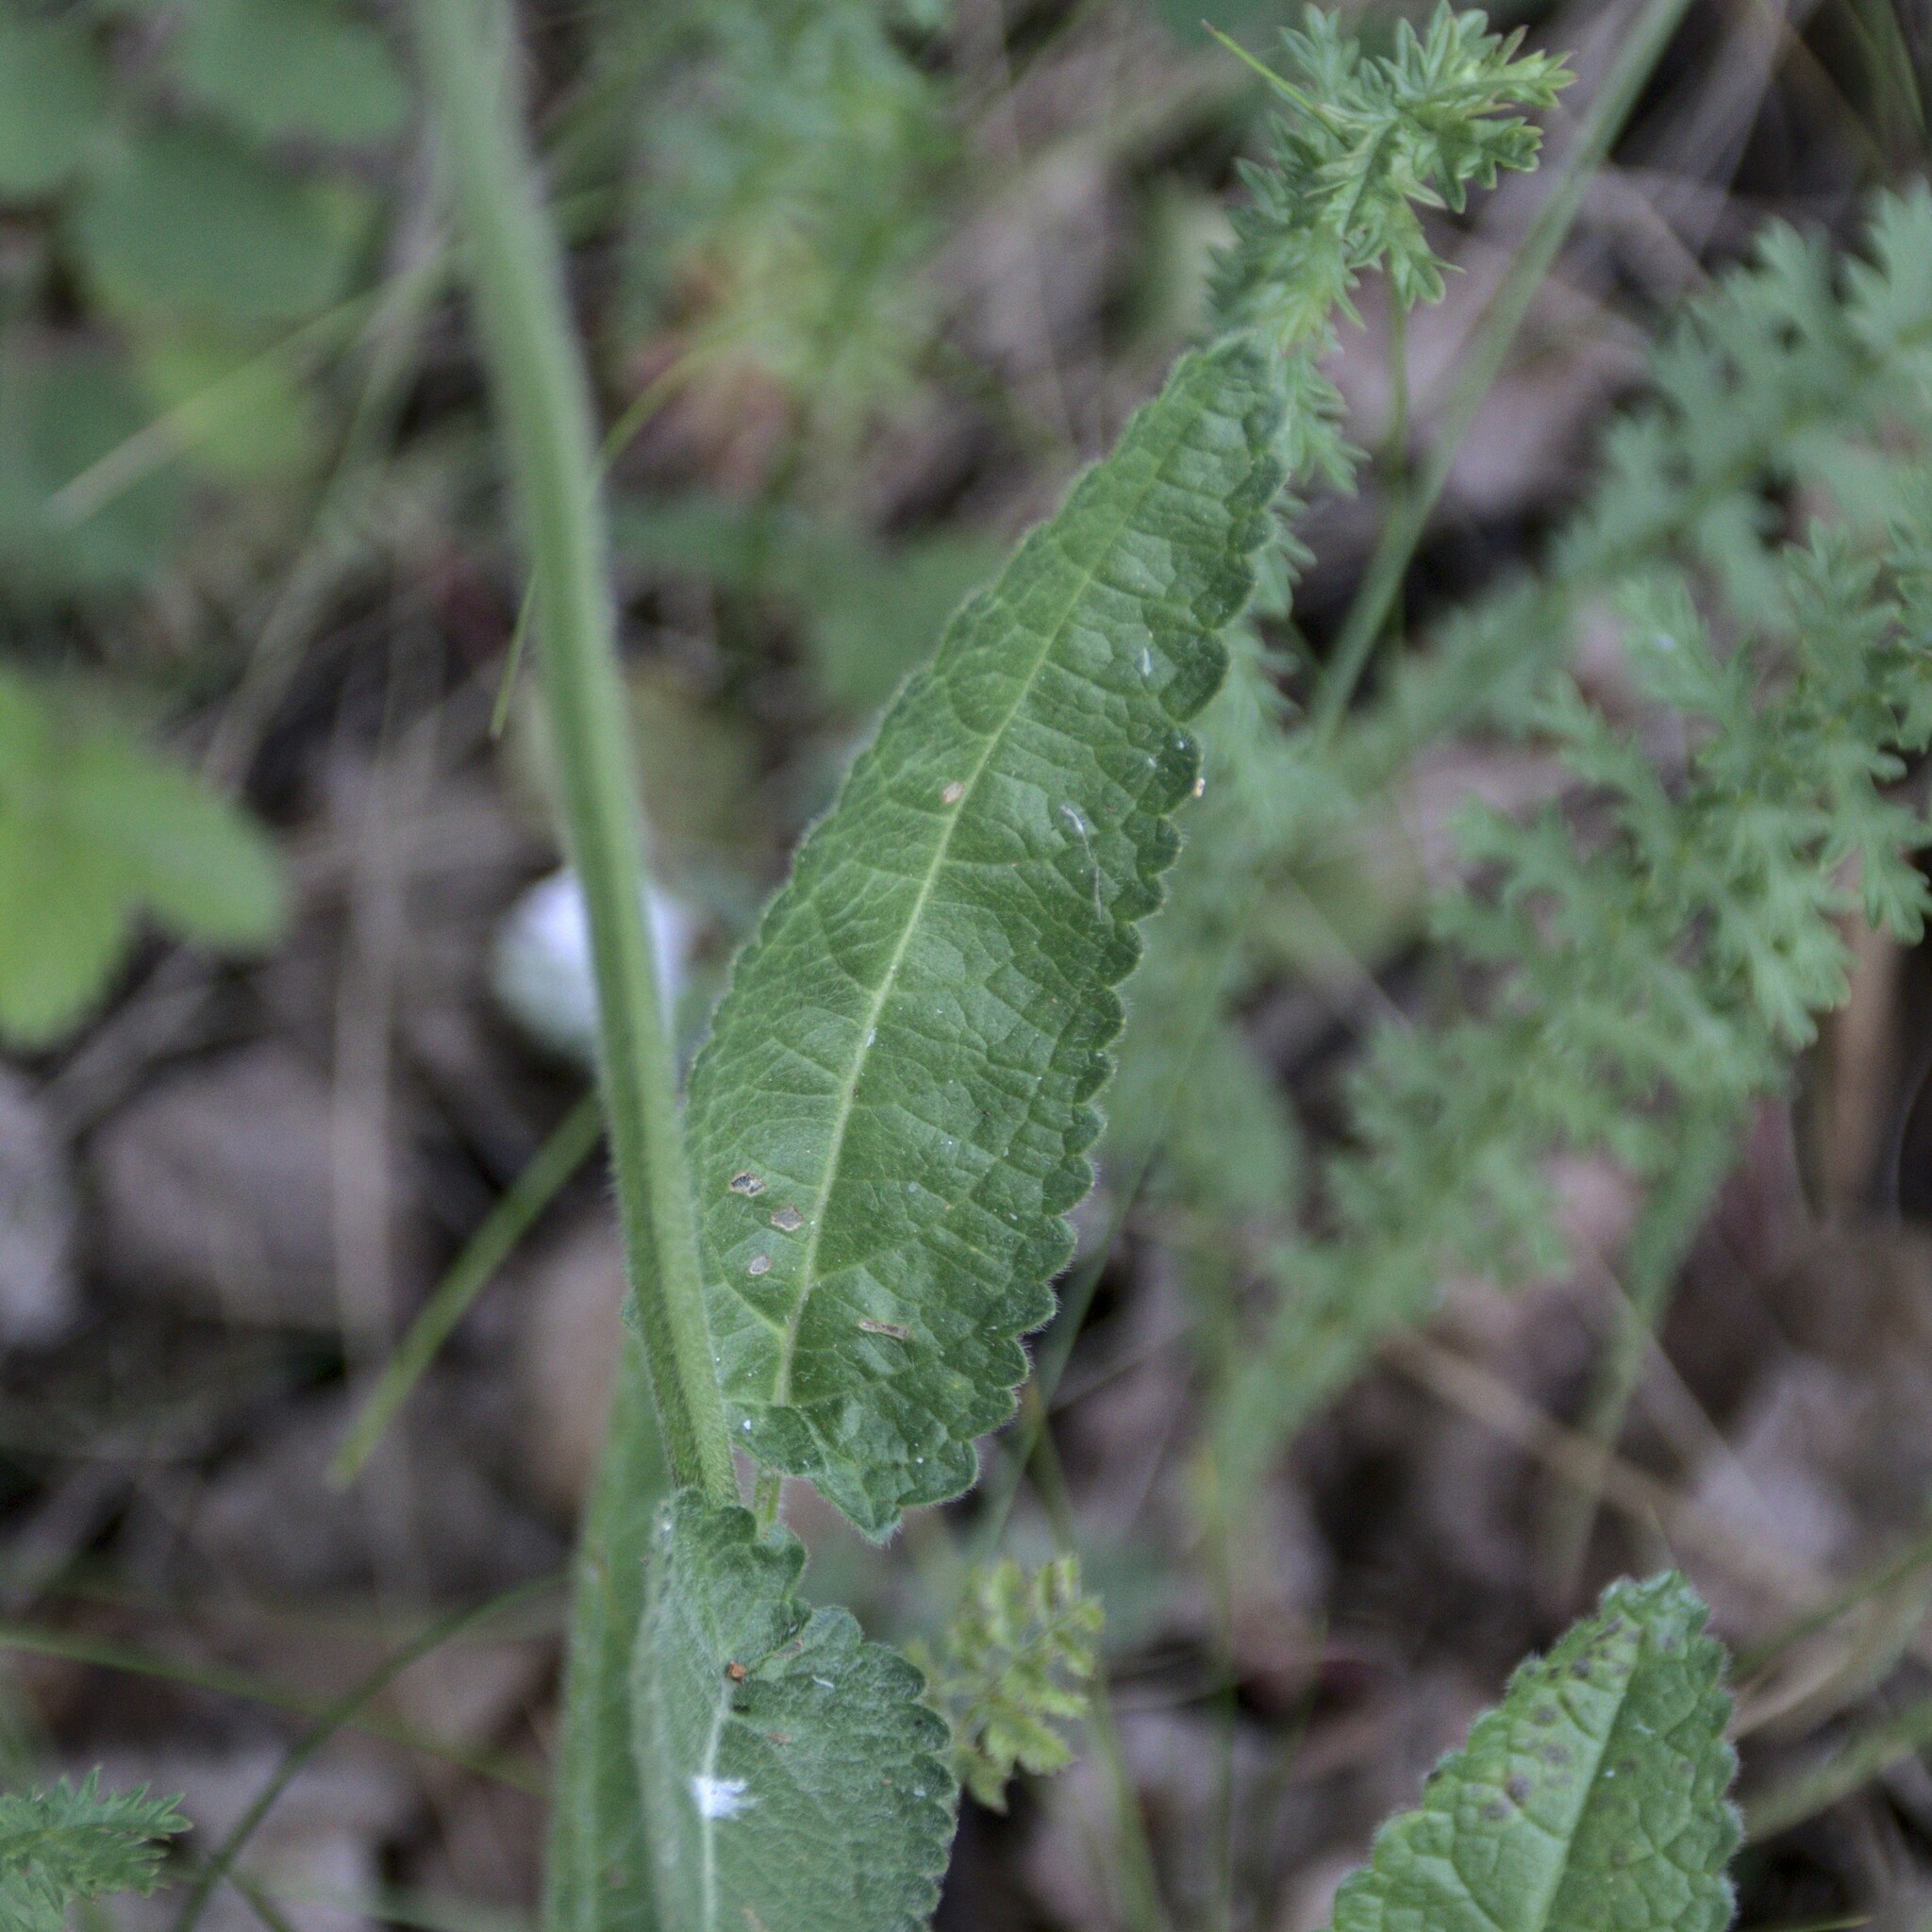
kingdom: Plantae
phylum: Tracheophyta
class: Magnoliopsida
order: Lamiales
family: Lamiaceae
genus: Betonica
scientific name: Betonica officinalis
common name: Bishop's-wort
